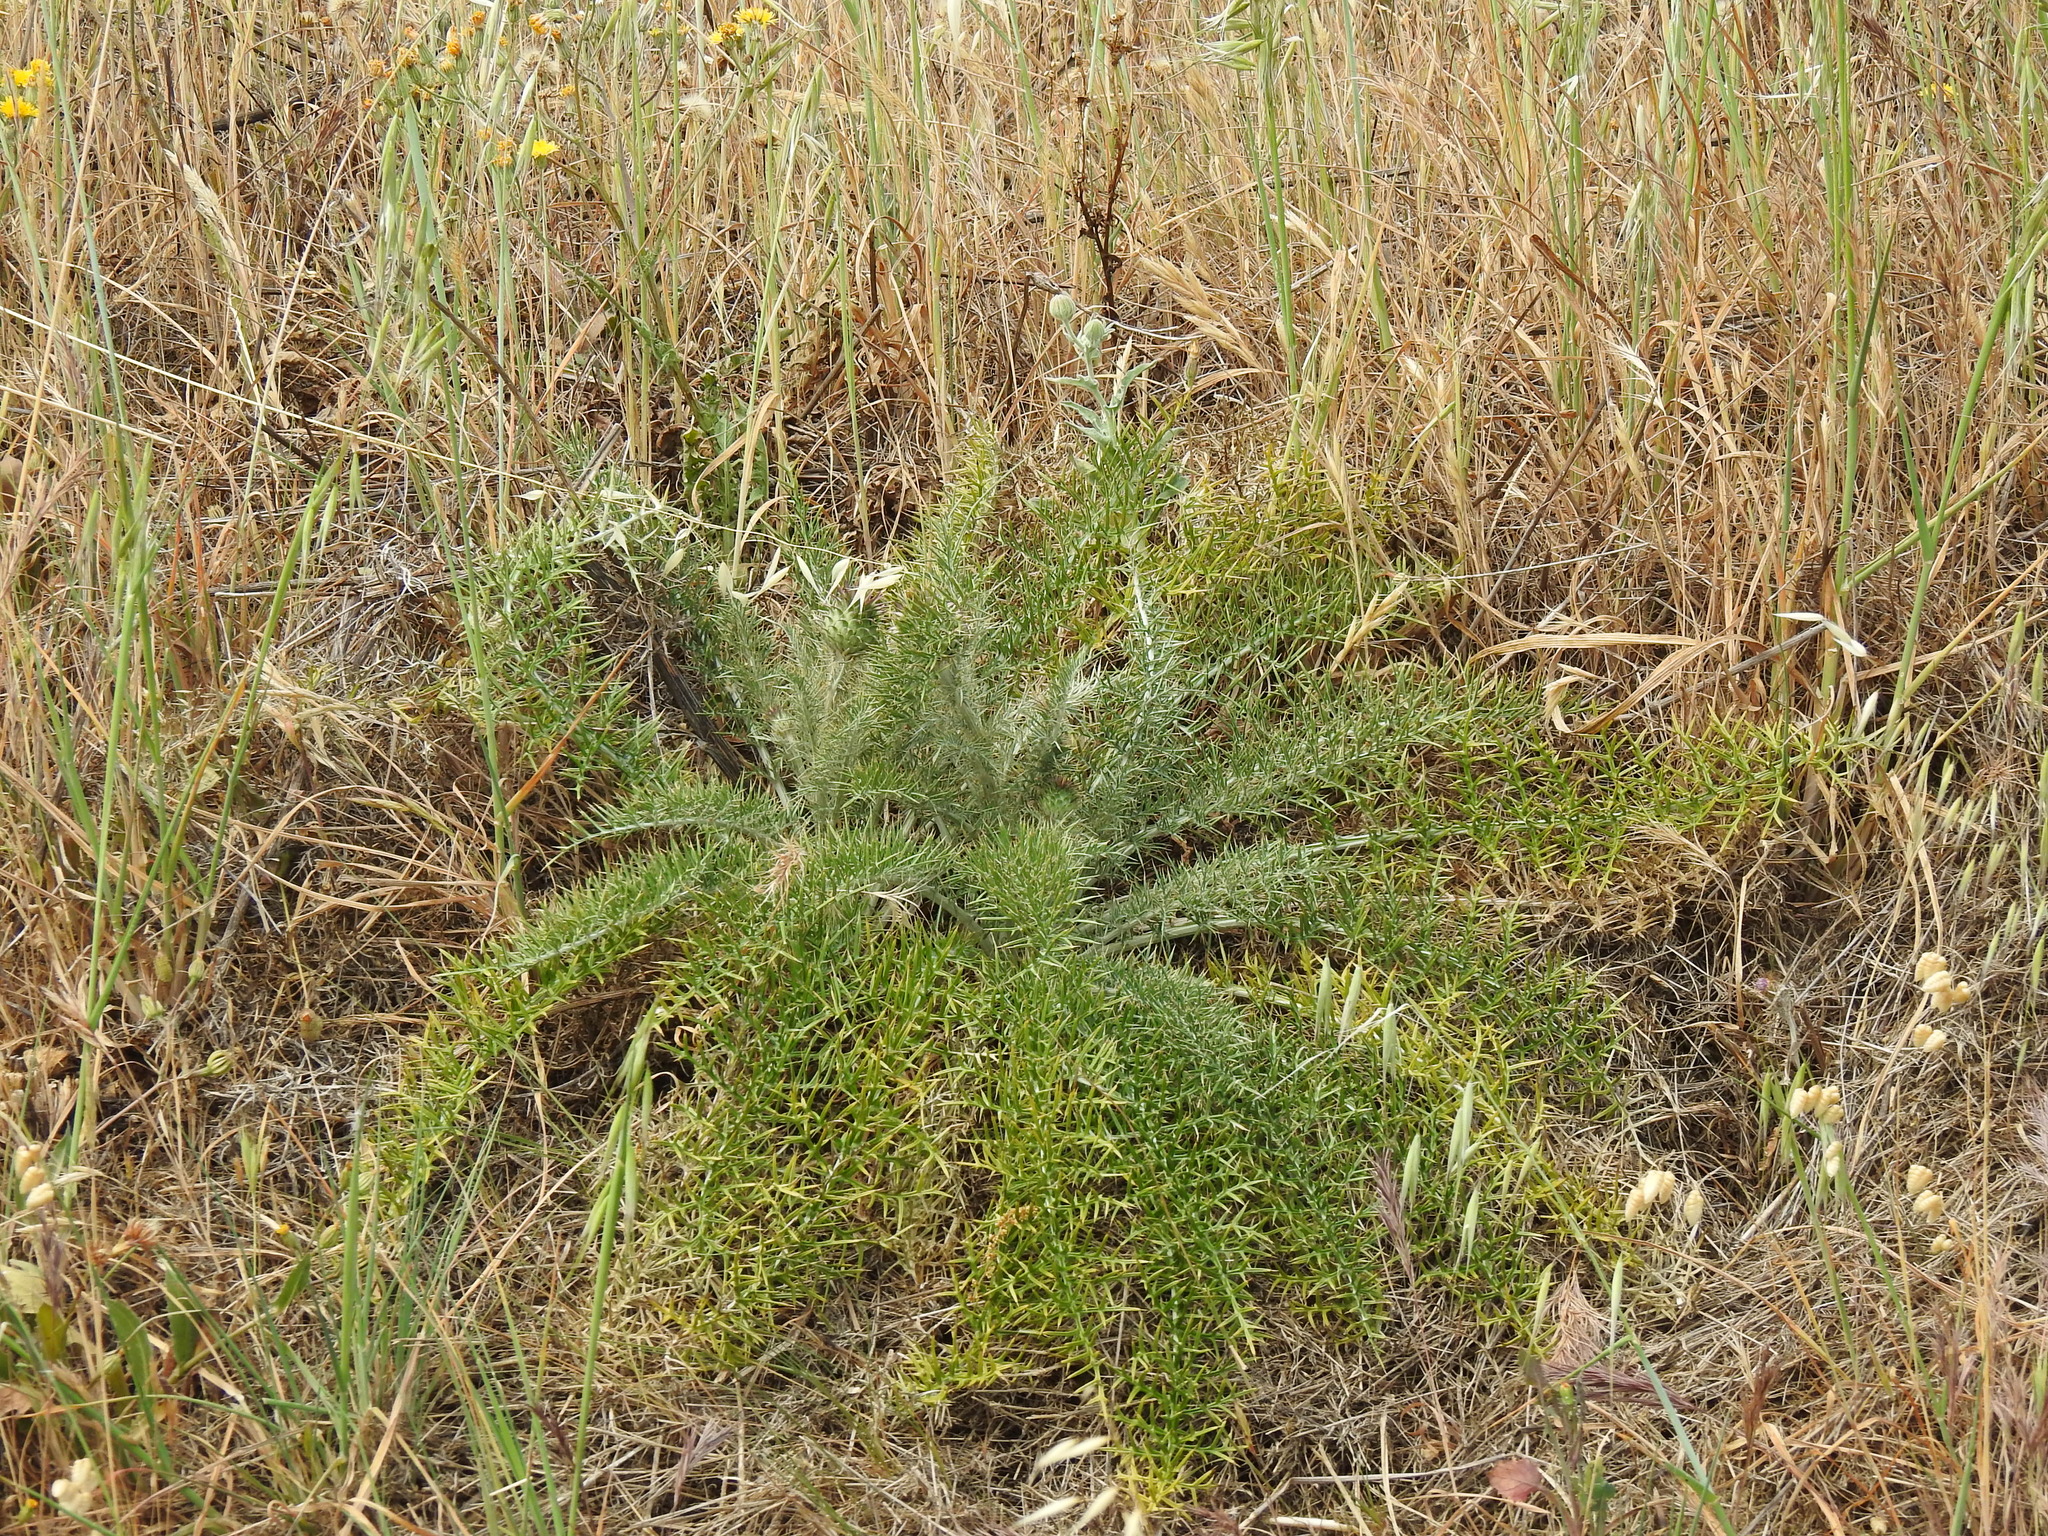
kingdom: Plantae
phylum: Tracheophyta
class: Magnoliopsida
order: Asterales
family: Asteraceae
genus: Cynara
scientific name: Cynara humilis
